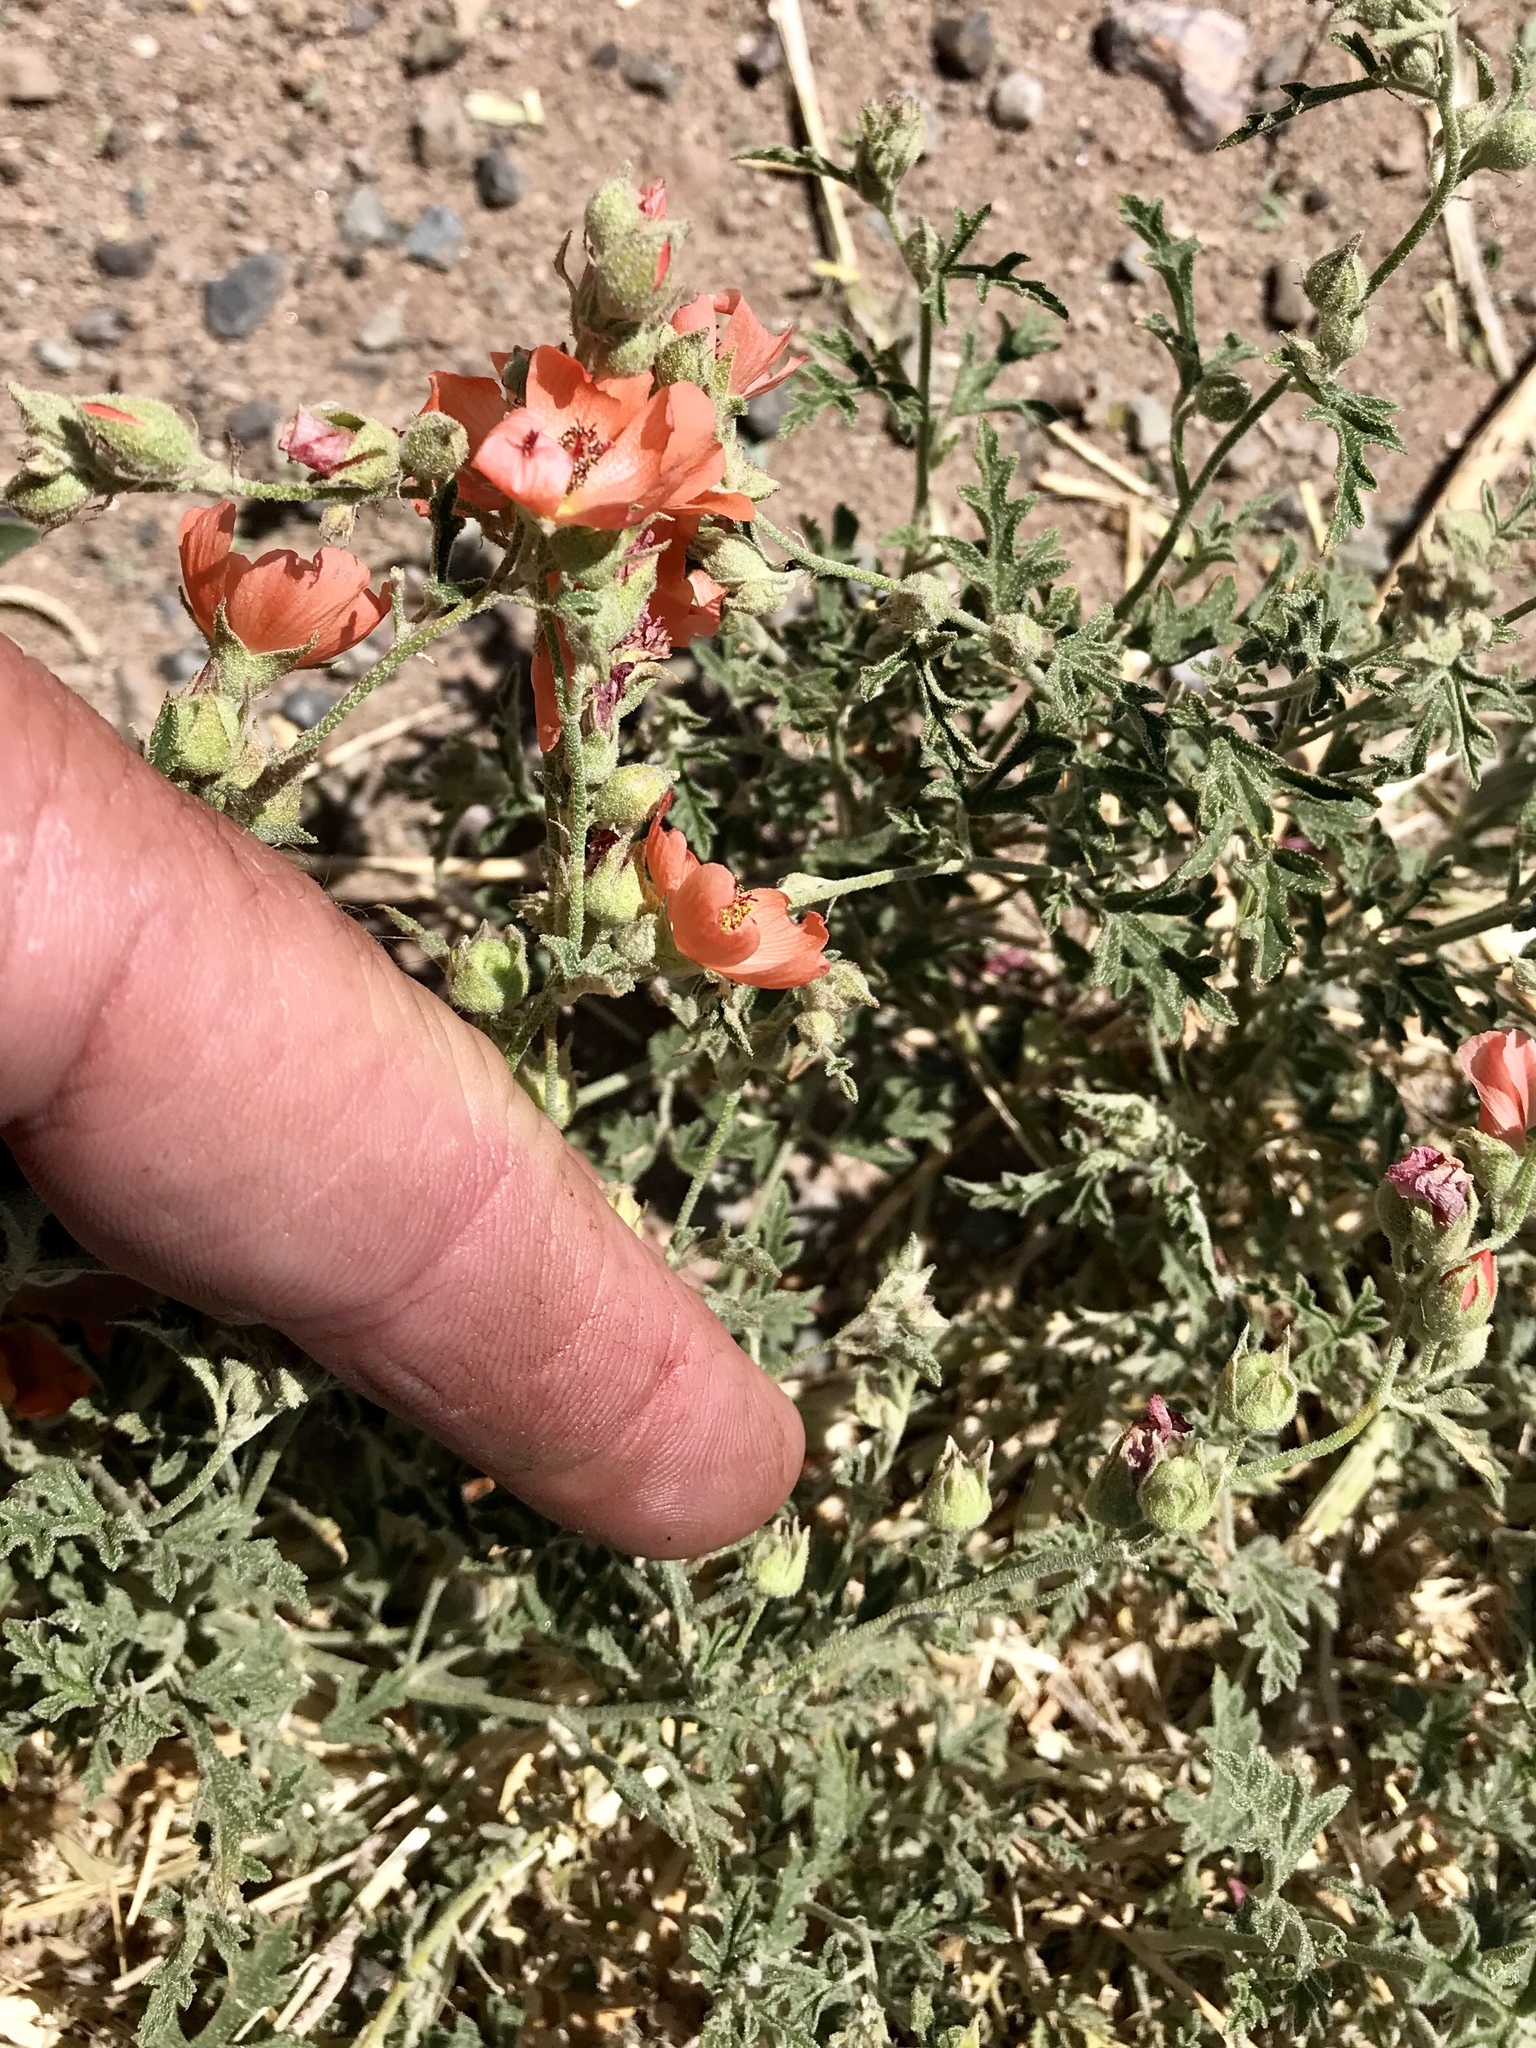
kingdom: Plantae
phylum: Tracheophyta
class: Magnoliopsida
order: Malvales
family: Malvaceae
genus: Sphaeralcea
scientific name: Sphaeralcea hastulata
